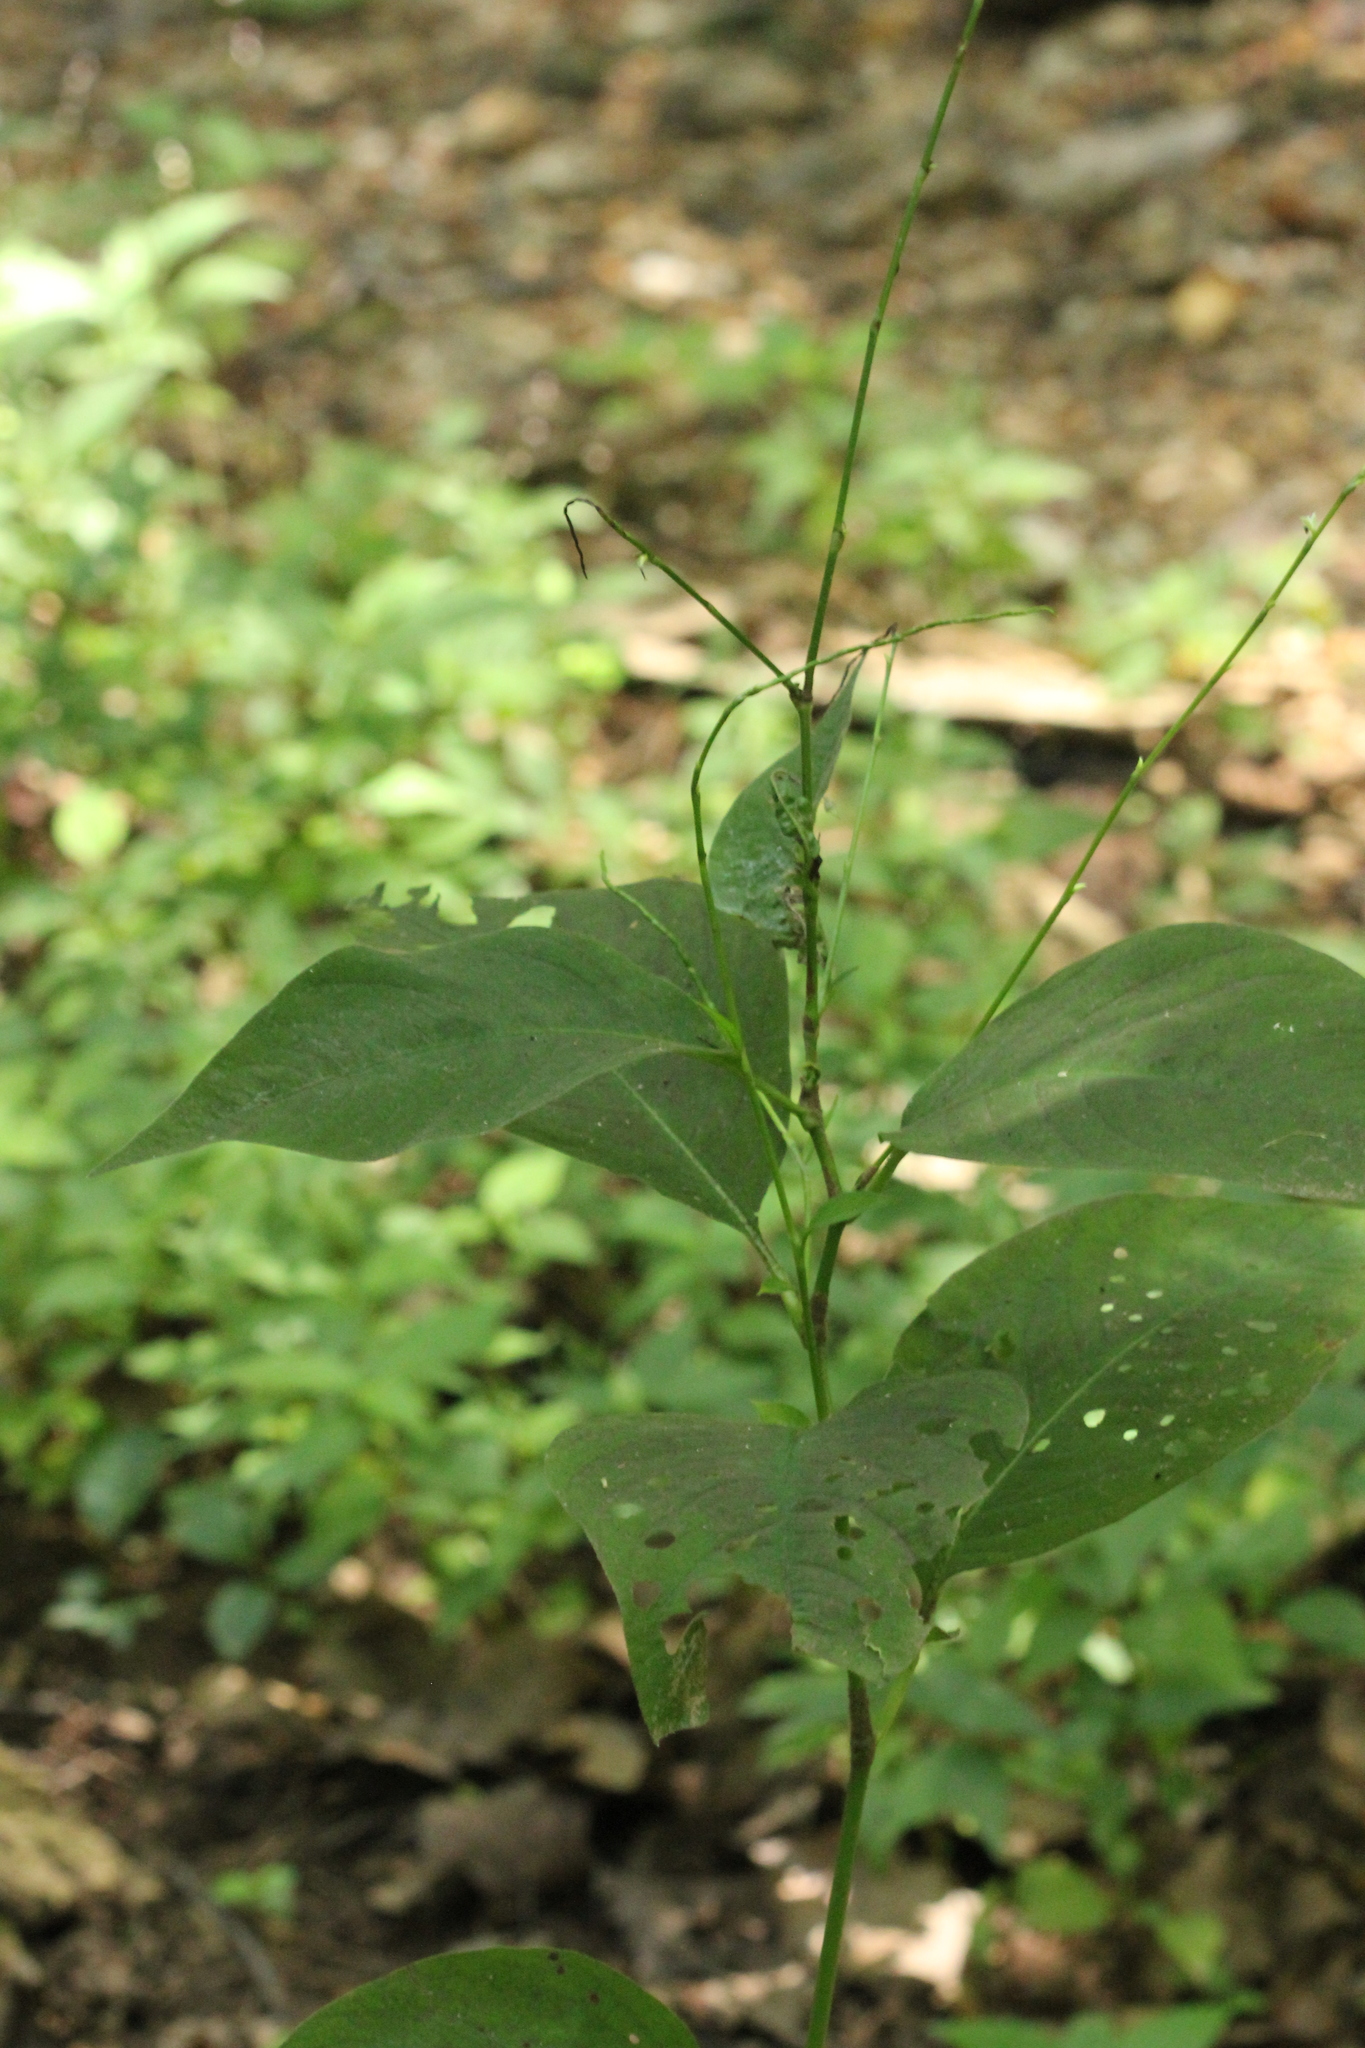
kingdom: Plantae
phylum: Tracheophyta
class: Magnoliopsida
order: Caryophyllales
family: Polygonaceae
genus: Persicaria
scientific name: Persicaria virginiana
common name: Jumpseed
